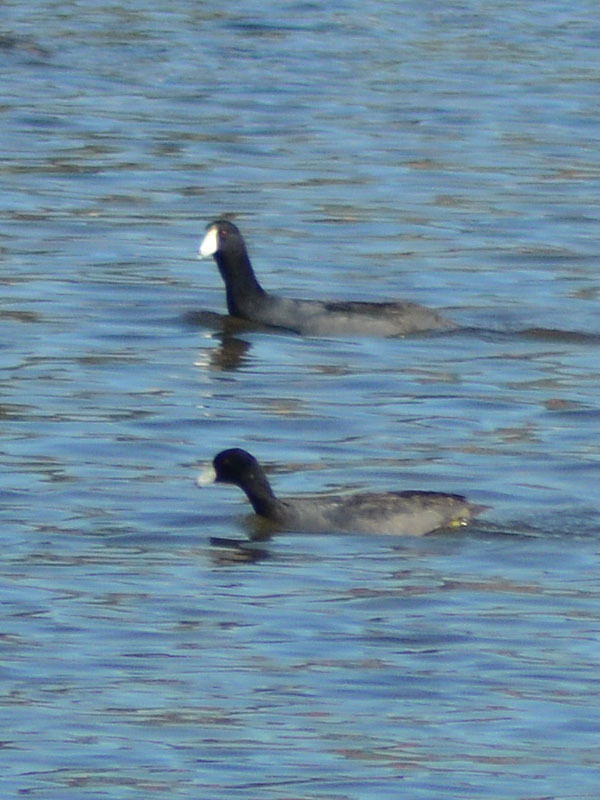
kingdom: Animalia
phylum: Chordata
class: Aves
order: Gruiformes
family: Rallidae
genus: Fulica
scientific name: Fulica americana
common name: American coot
